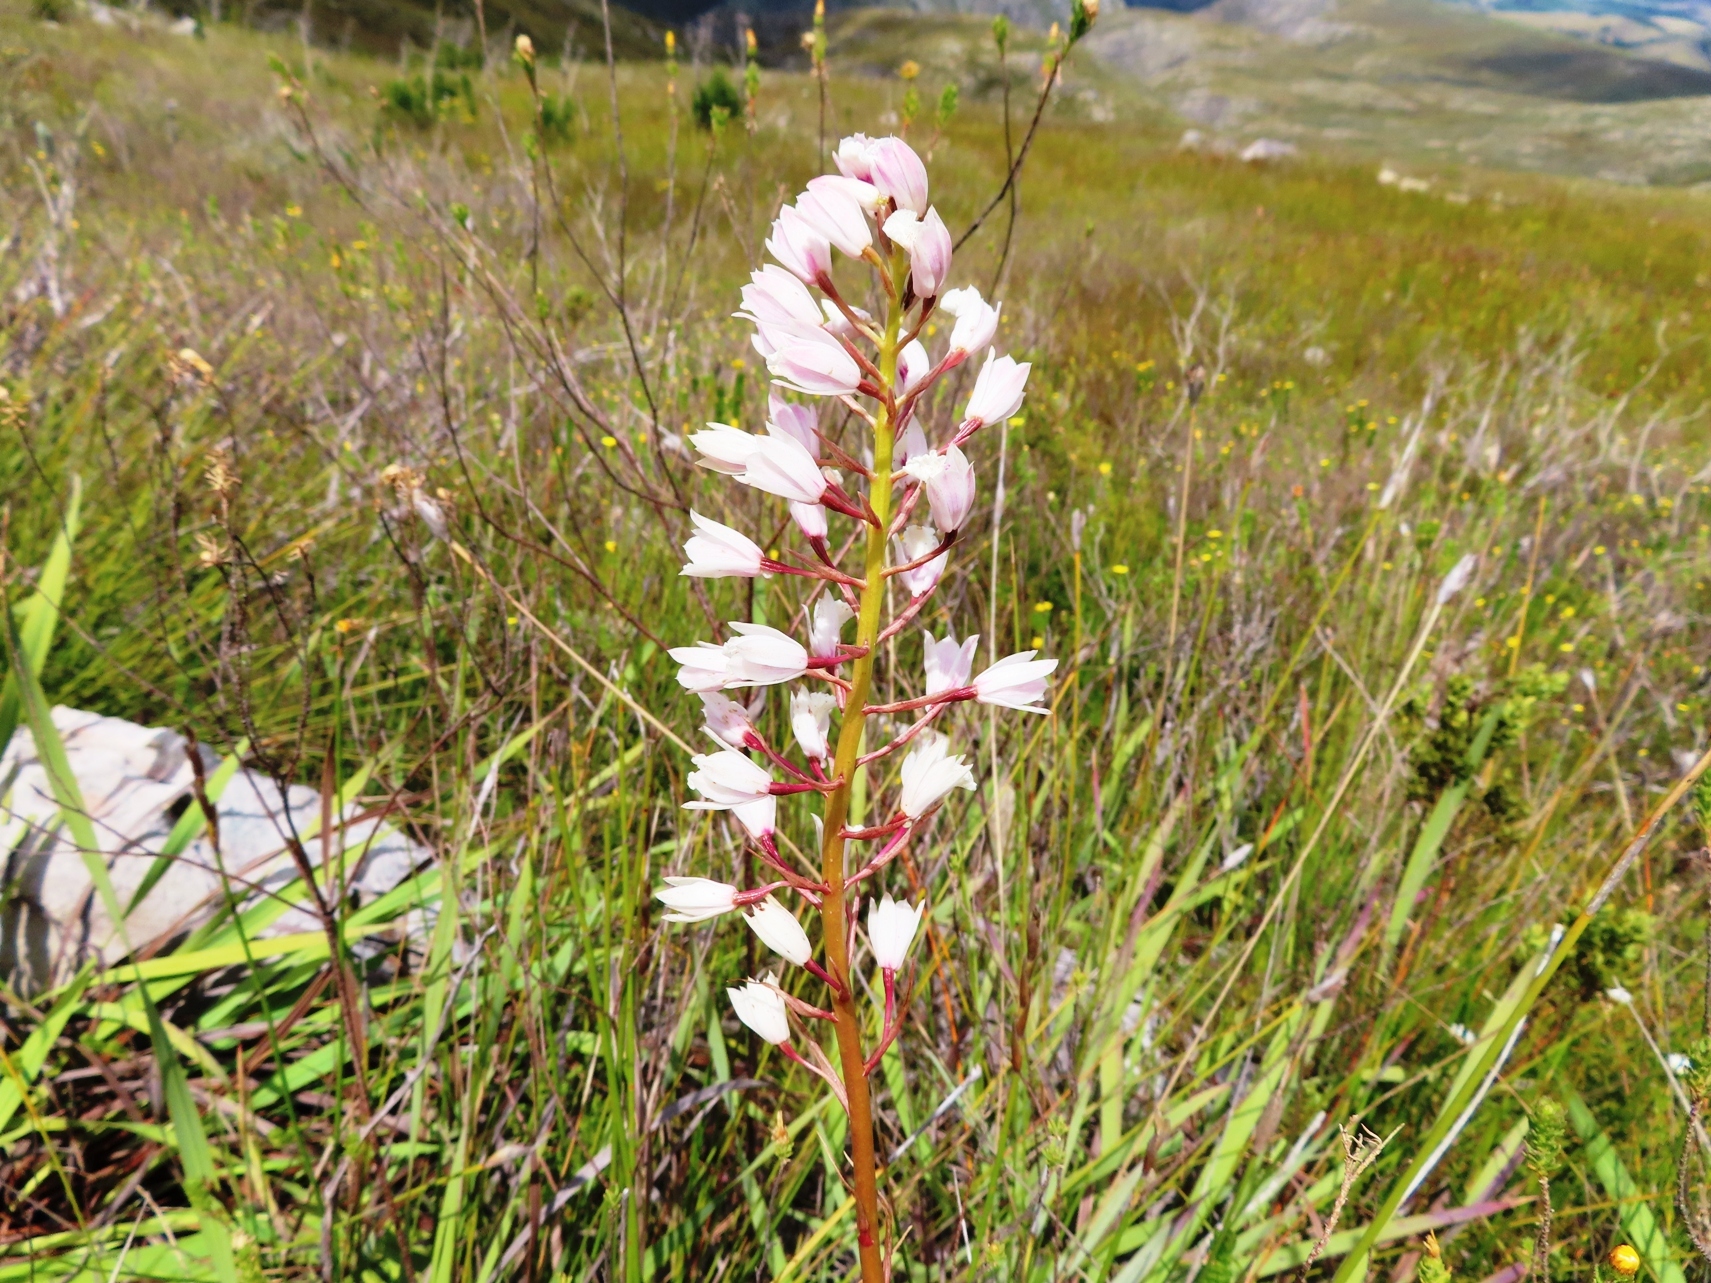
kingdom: Plantae
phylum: Tracheophyta
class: Liliopsida
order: Asparagales
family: Orchidaceae
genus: Eulophia
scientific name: Eulophia barbata
